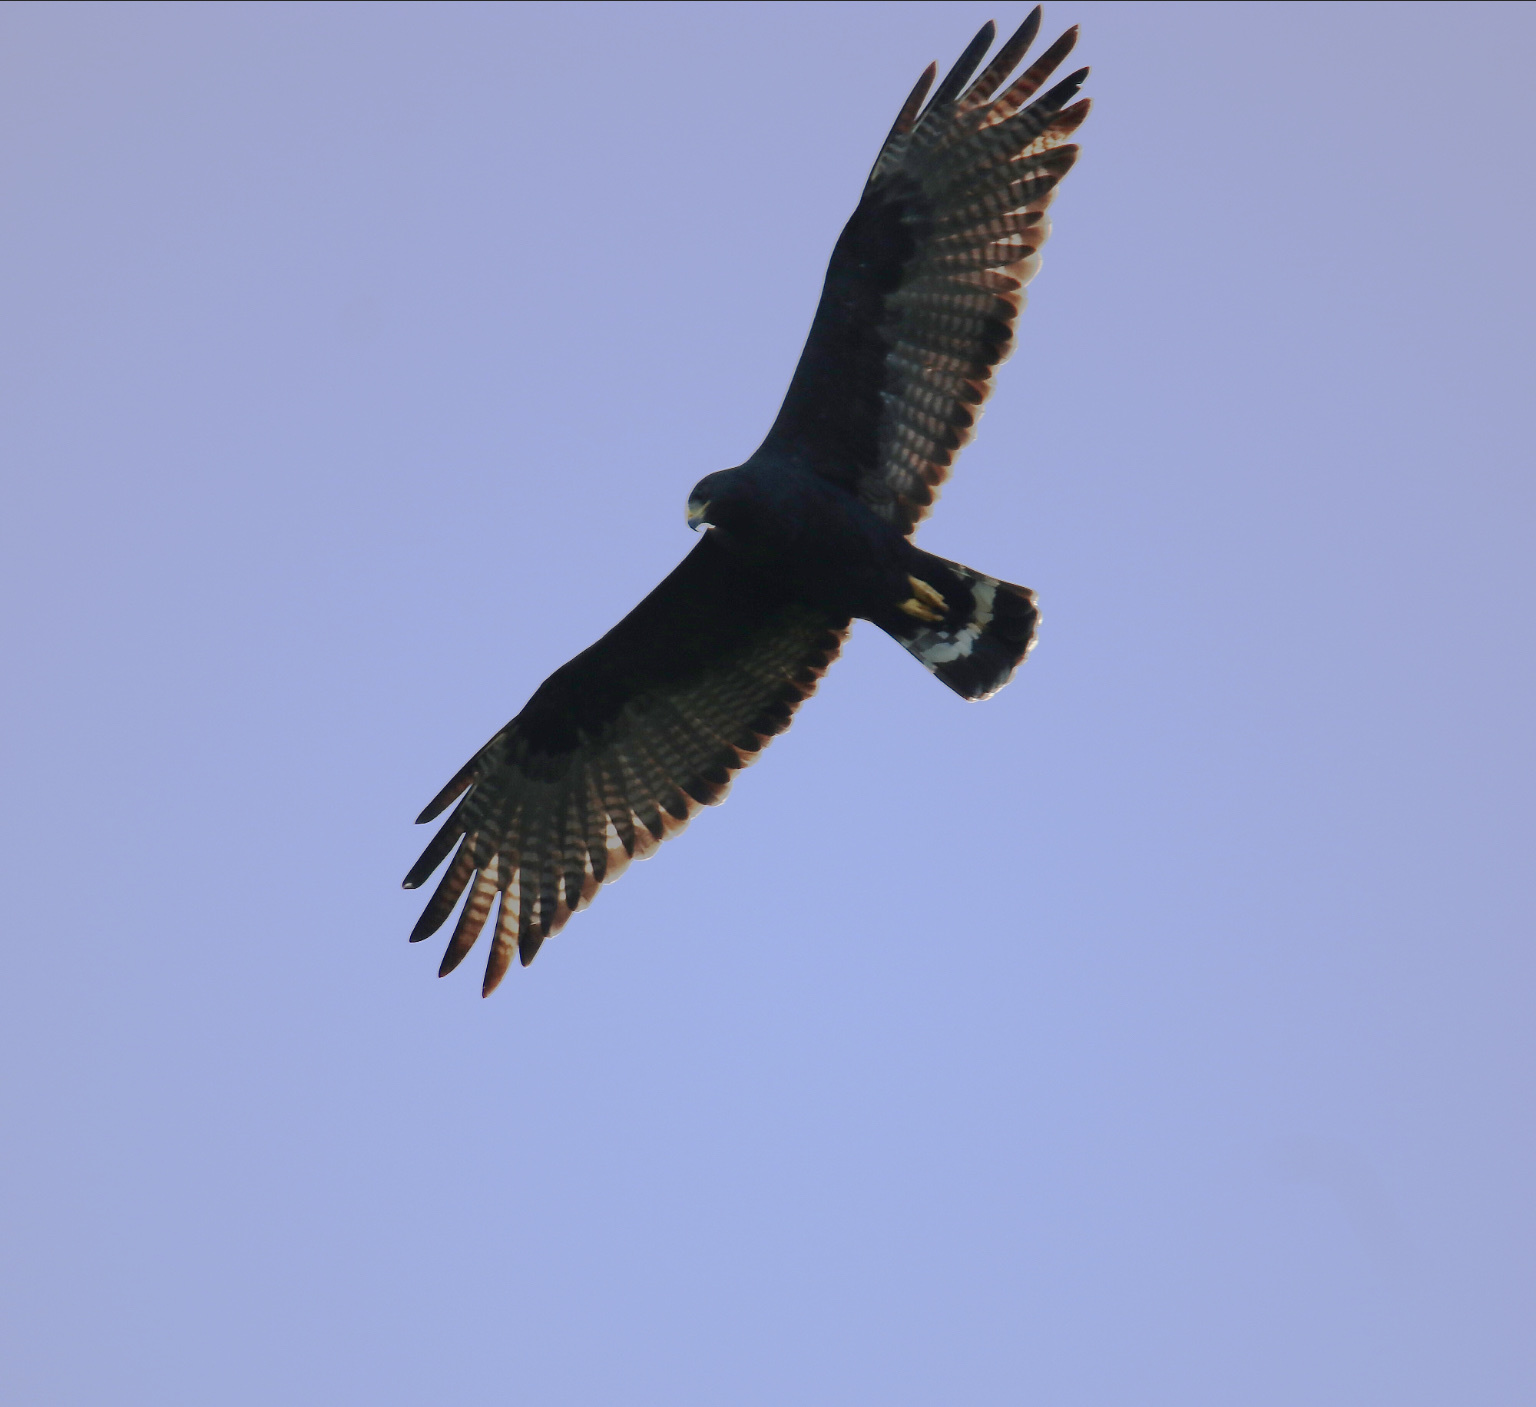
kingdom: Animalia
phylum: Chordata
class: Aves
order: Accipitriformes
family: Accipitridae
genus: Buteo
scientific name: Buteo albonotatus
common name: Zone-tailed hawk
